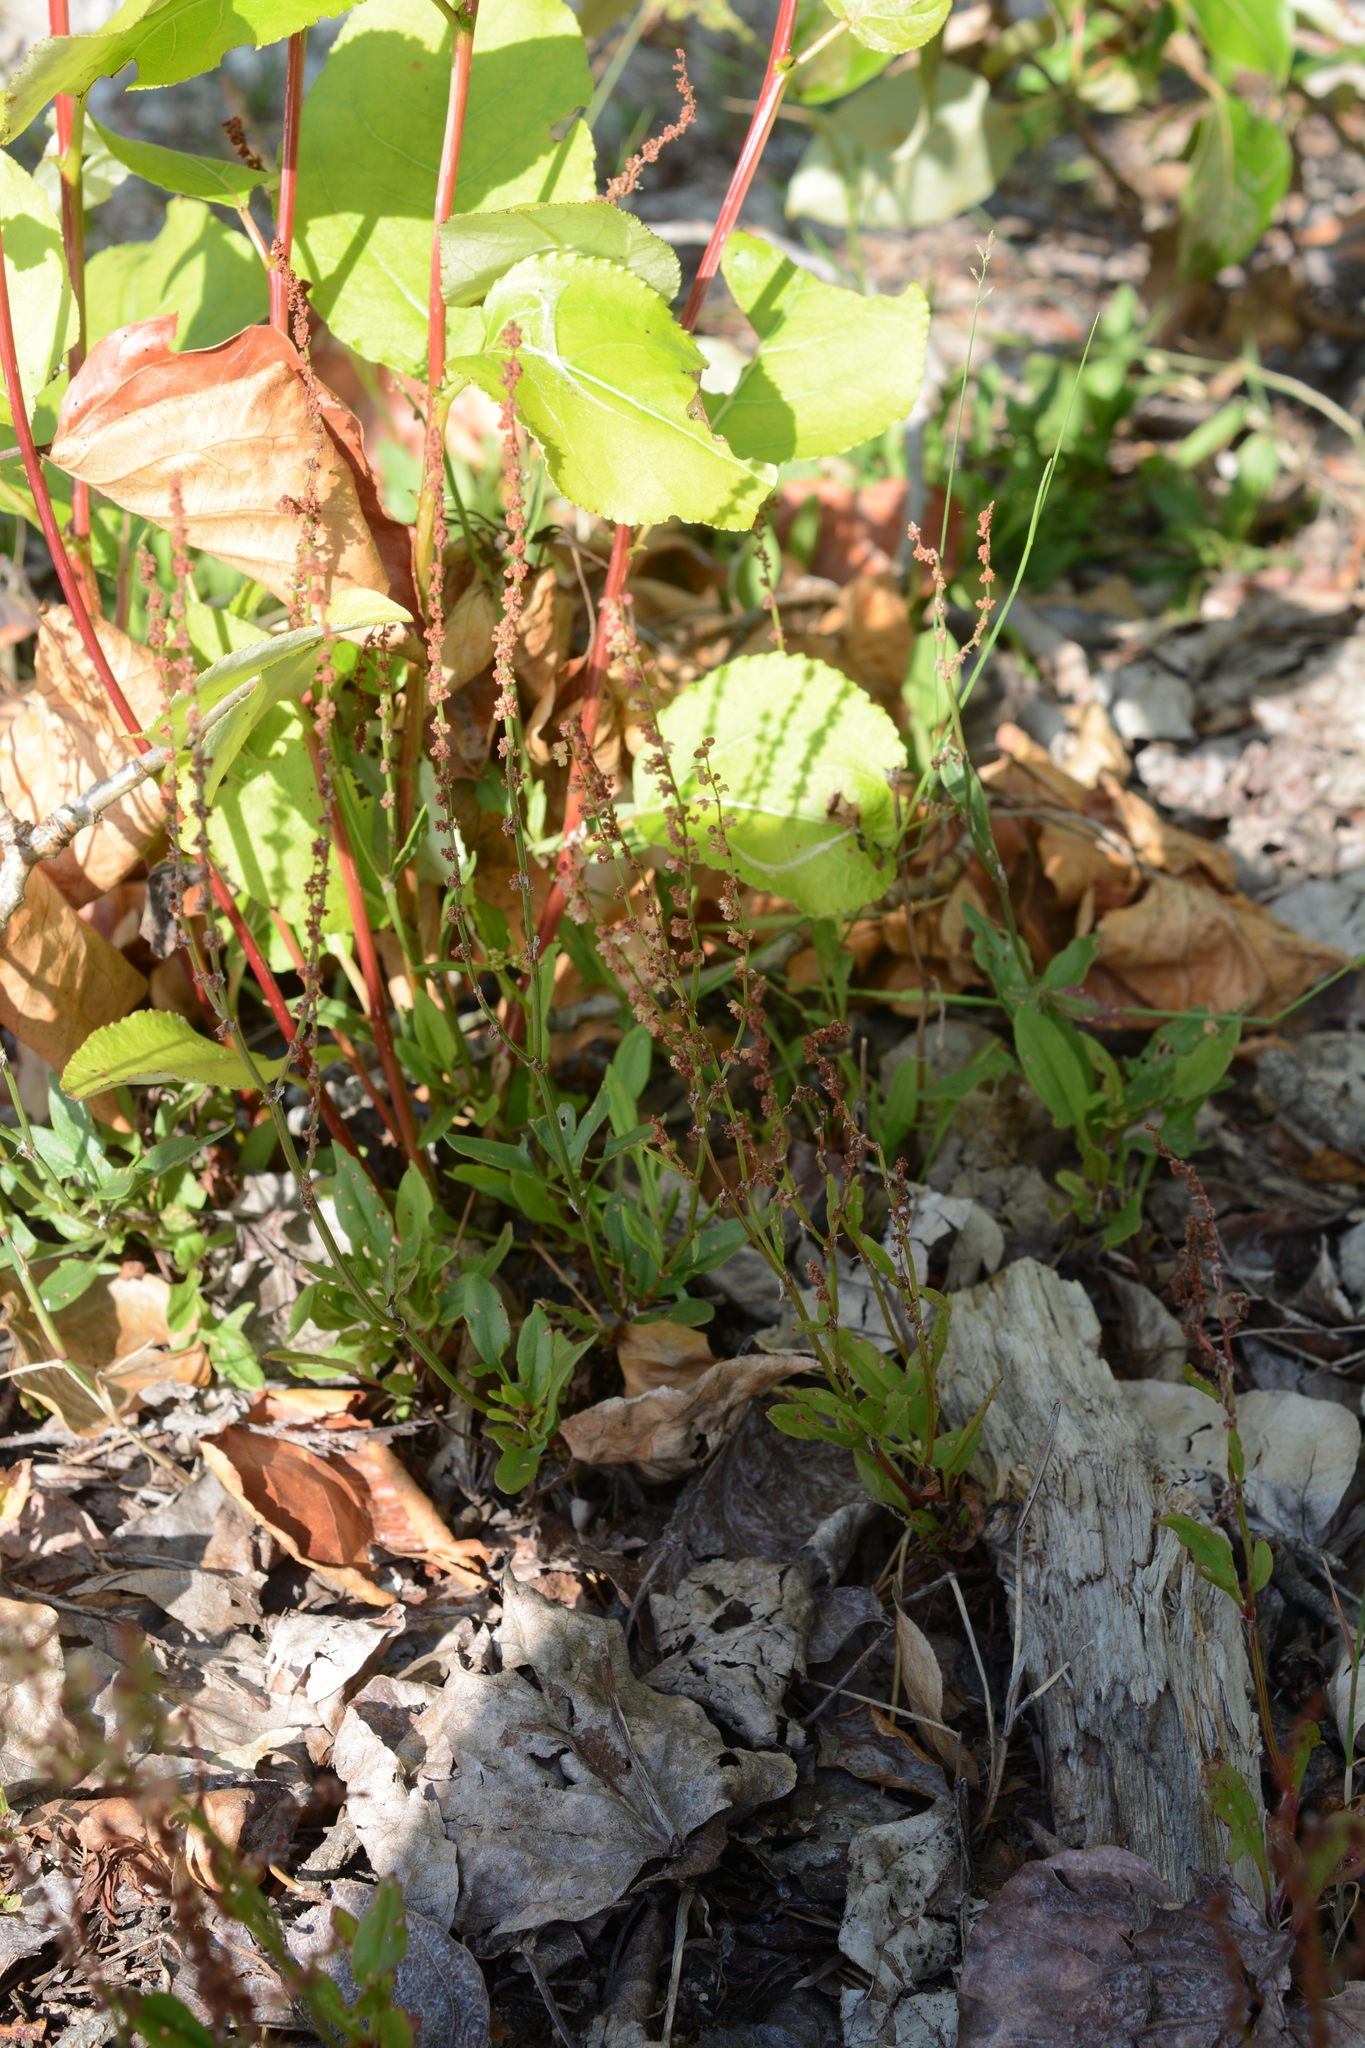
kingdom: Plantae
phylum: Tracheophyta
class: Magnoliopsida
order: Caryophyllales
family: Polygonaceae
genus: Rumex
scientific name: Rumex acetosella
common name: Common sheep sorrel
